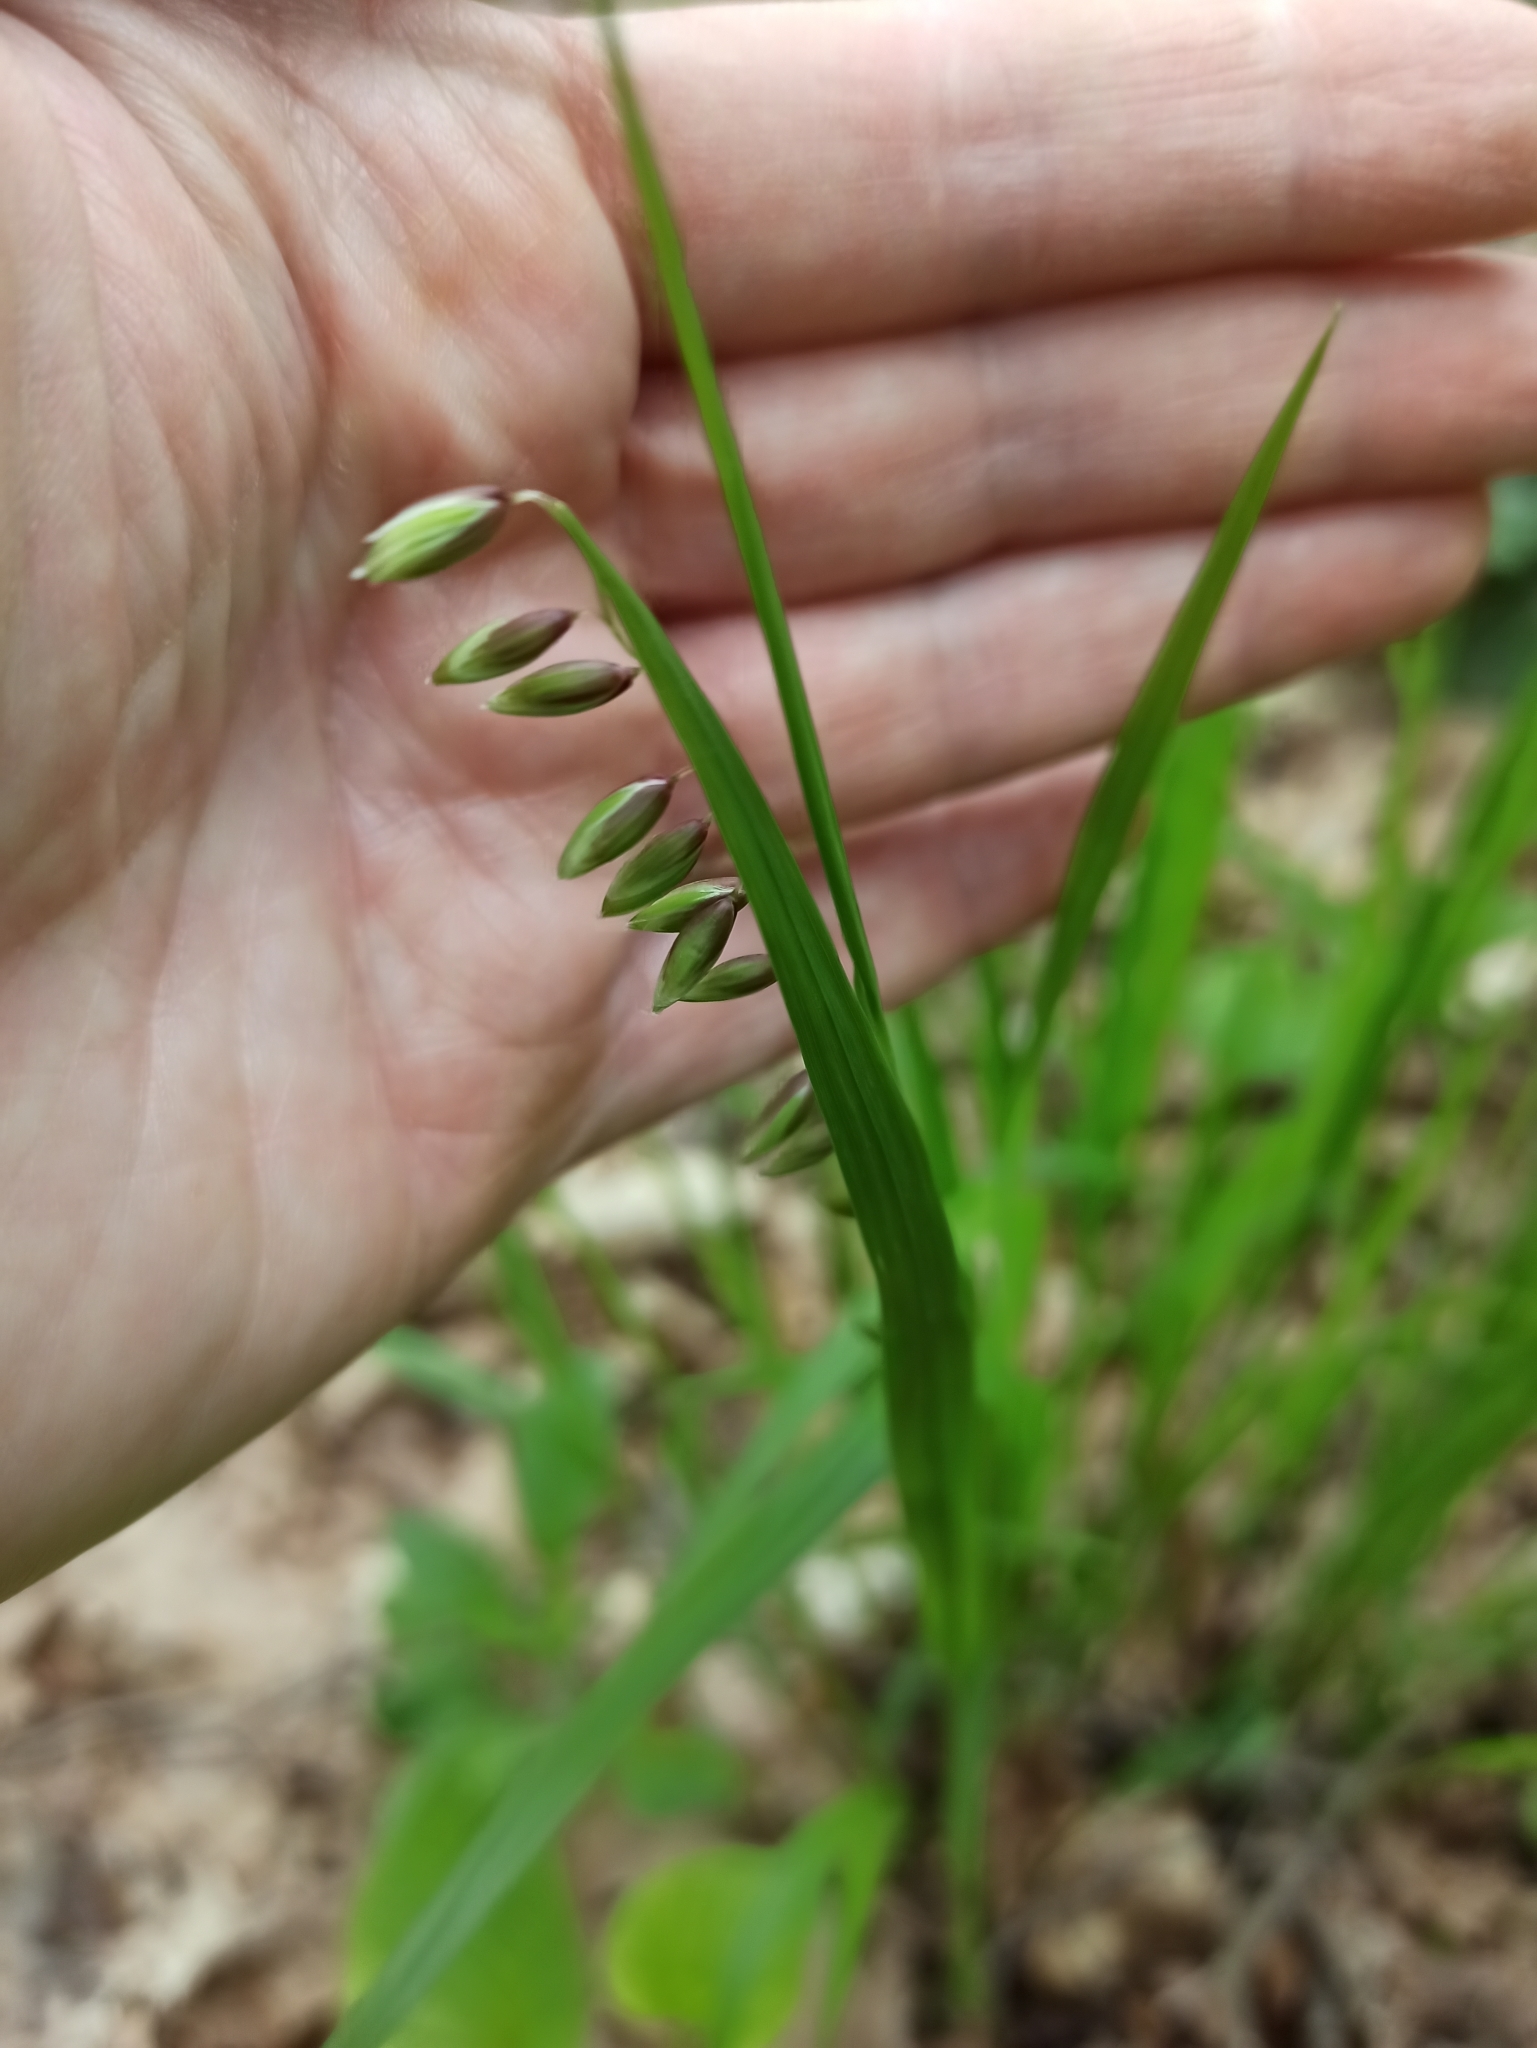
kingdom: Plantae
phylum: Tracheophyta
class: Liliopsida
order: Poales
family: Poaceae
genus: Melica
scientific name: Melica nutans
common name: Mountain melick
